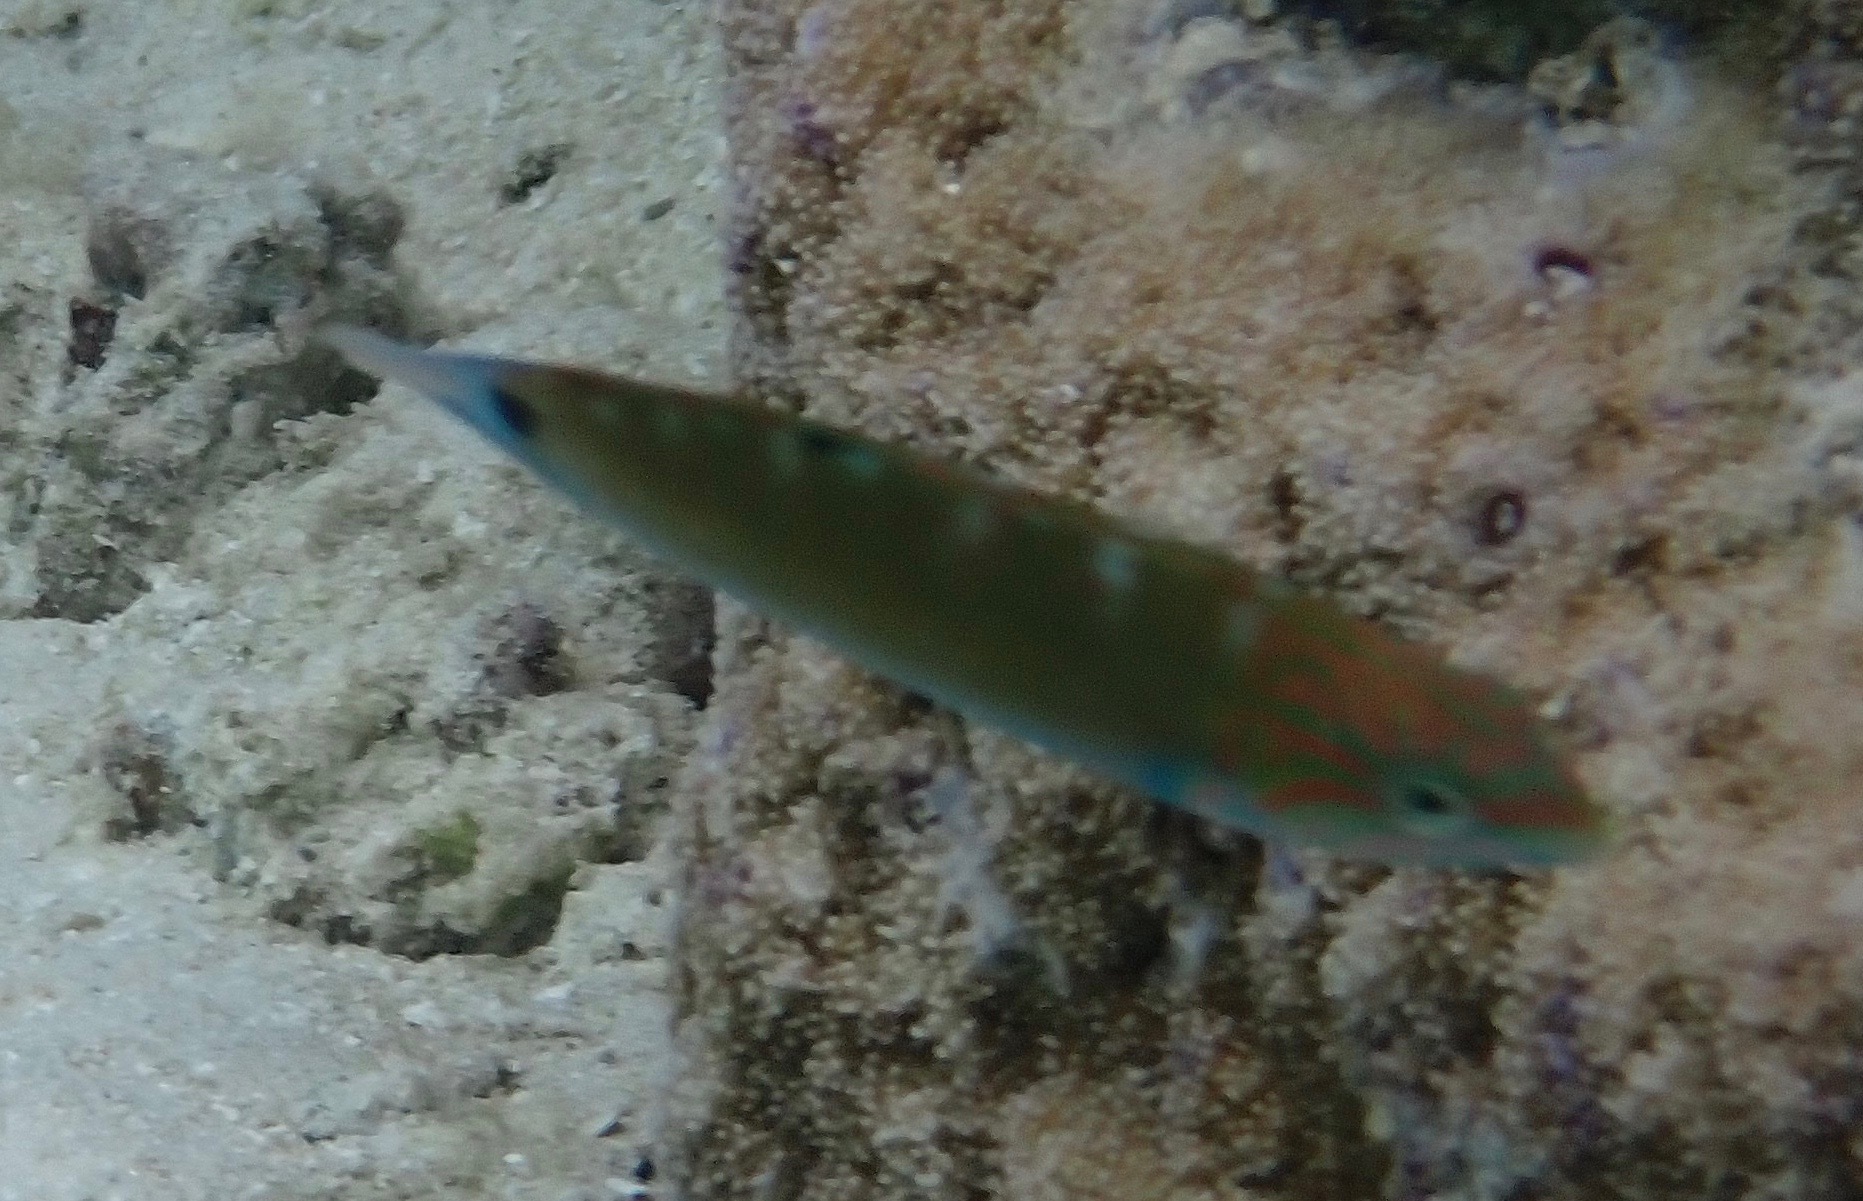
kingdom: Animalia
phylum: Chordata
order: Perciformes
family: Labridae
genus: Thalassoma
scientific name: Thalassoma lunare
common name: Blue wrasse
